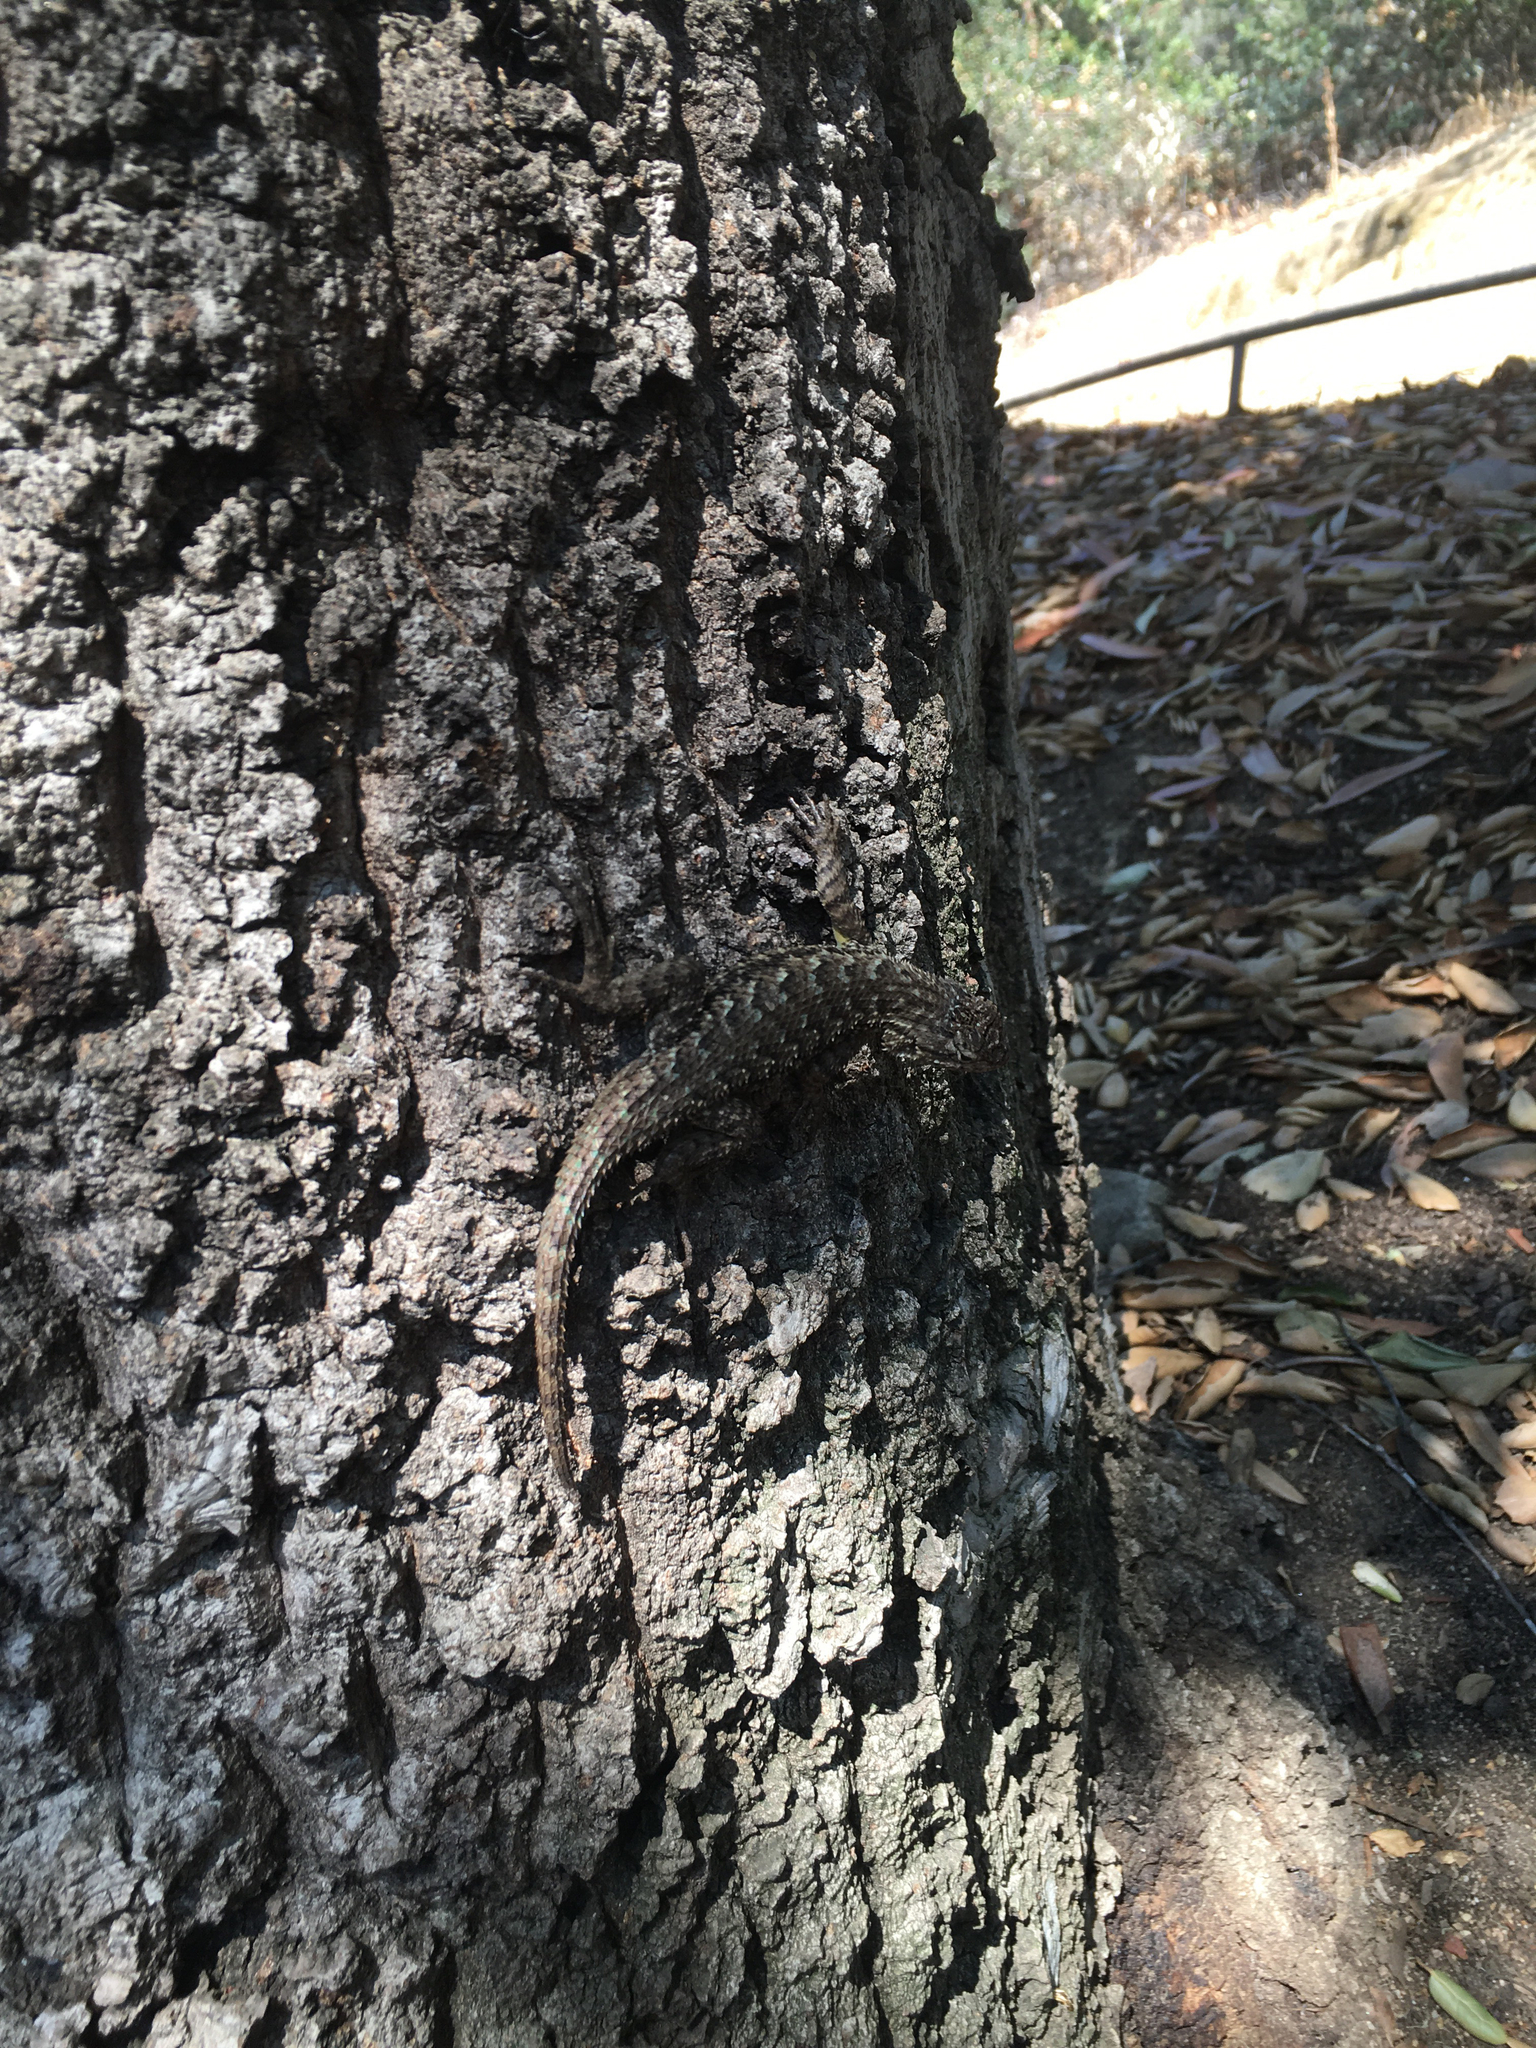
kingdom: Animalia
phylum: Chordata
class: Squamata
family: Phrynosomatidae
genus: Sceloporus
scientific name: Sceloporus occidentalis
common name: Western fence lizard
